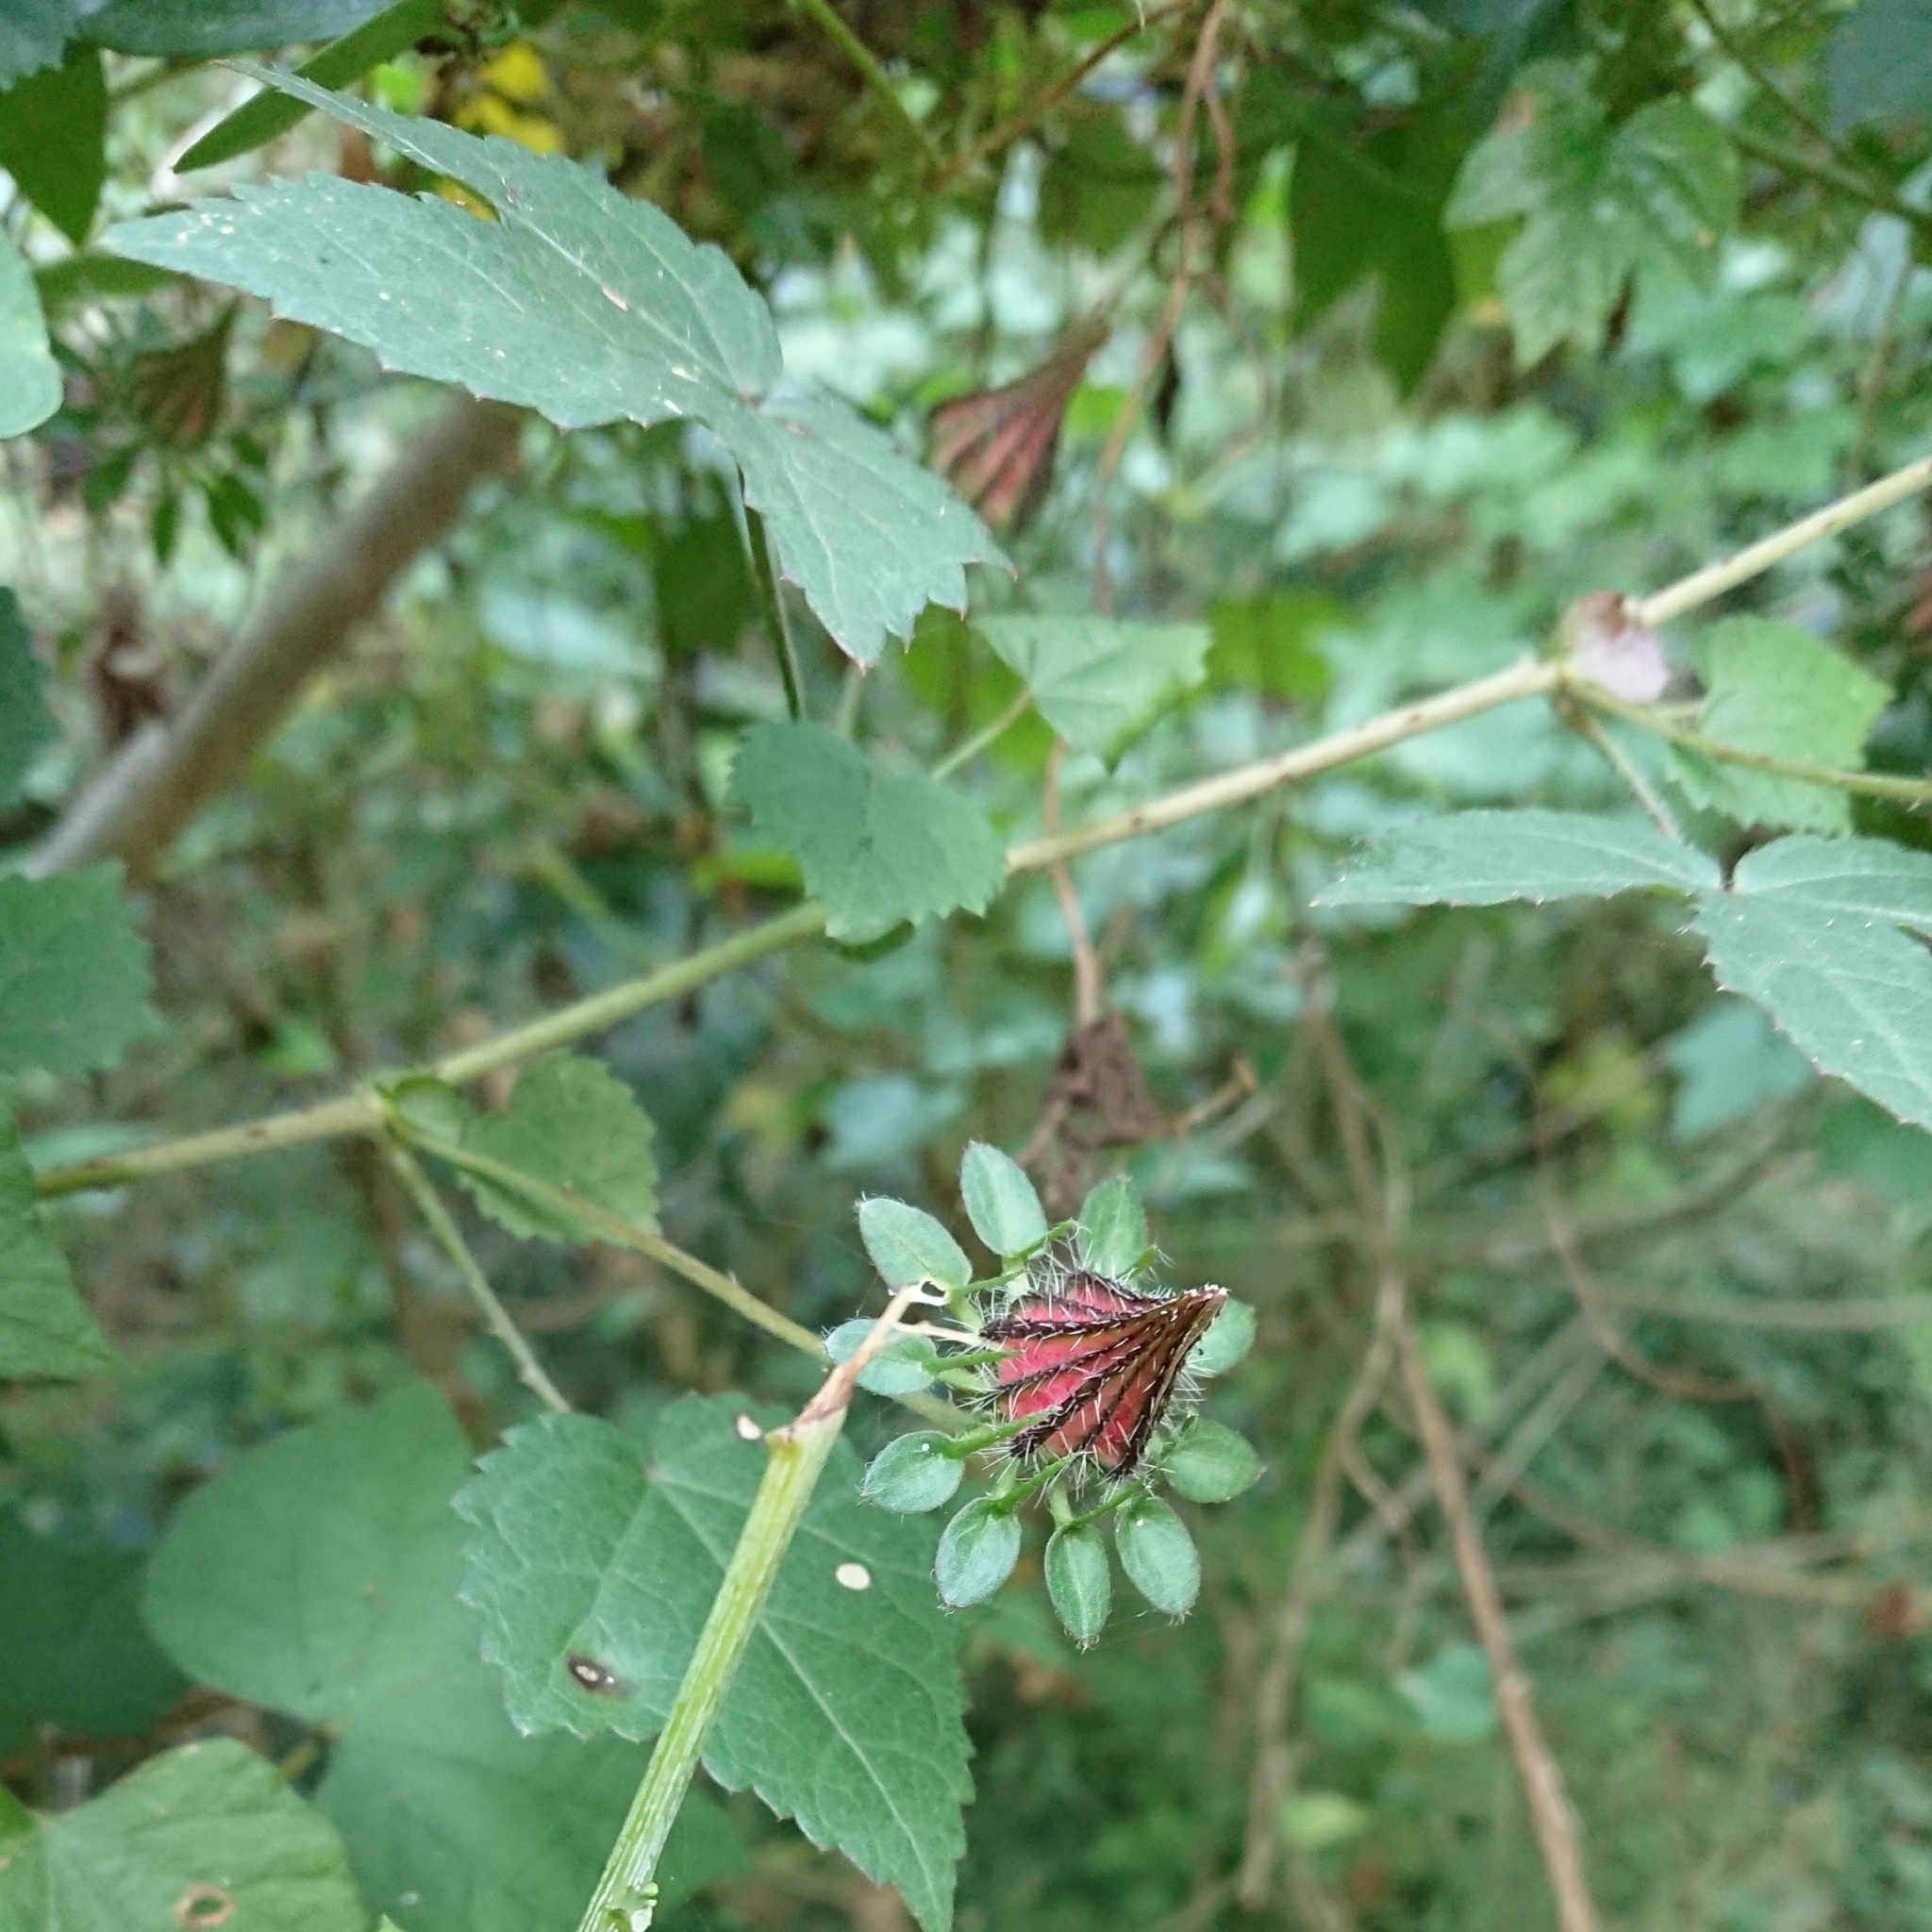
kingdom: Plantae
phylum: Tracheophyta
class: Magnoliopsida
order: Malvales
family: Malvaceae
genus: Hibiscus
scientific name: Hibiscus surattensis
